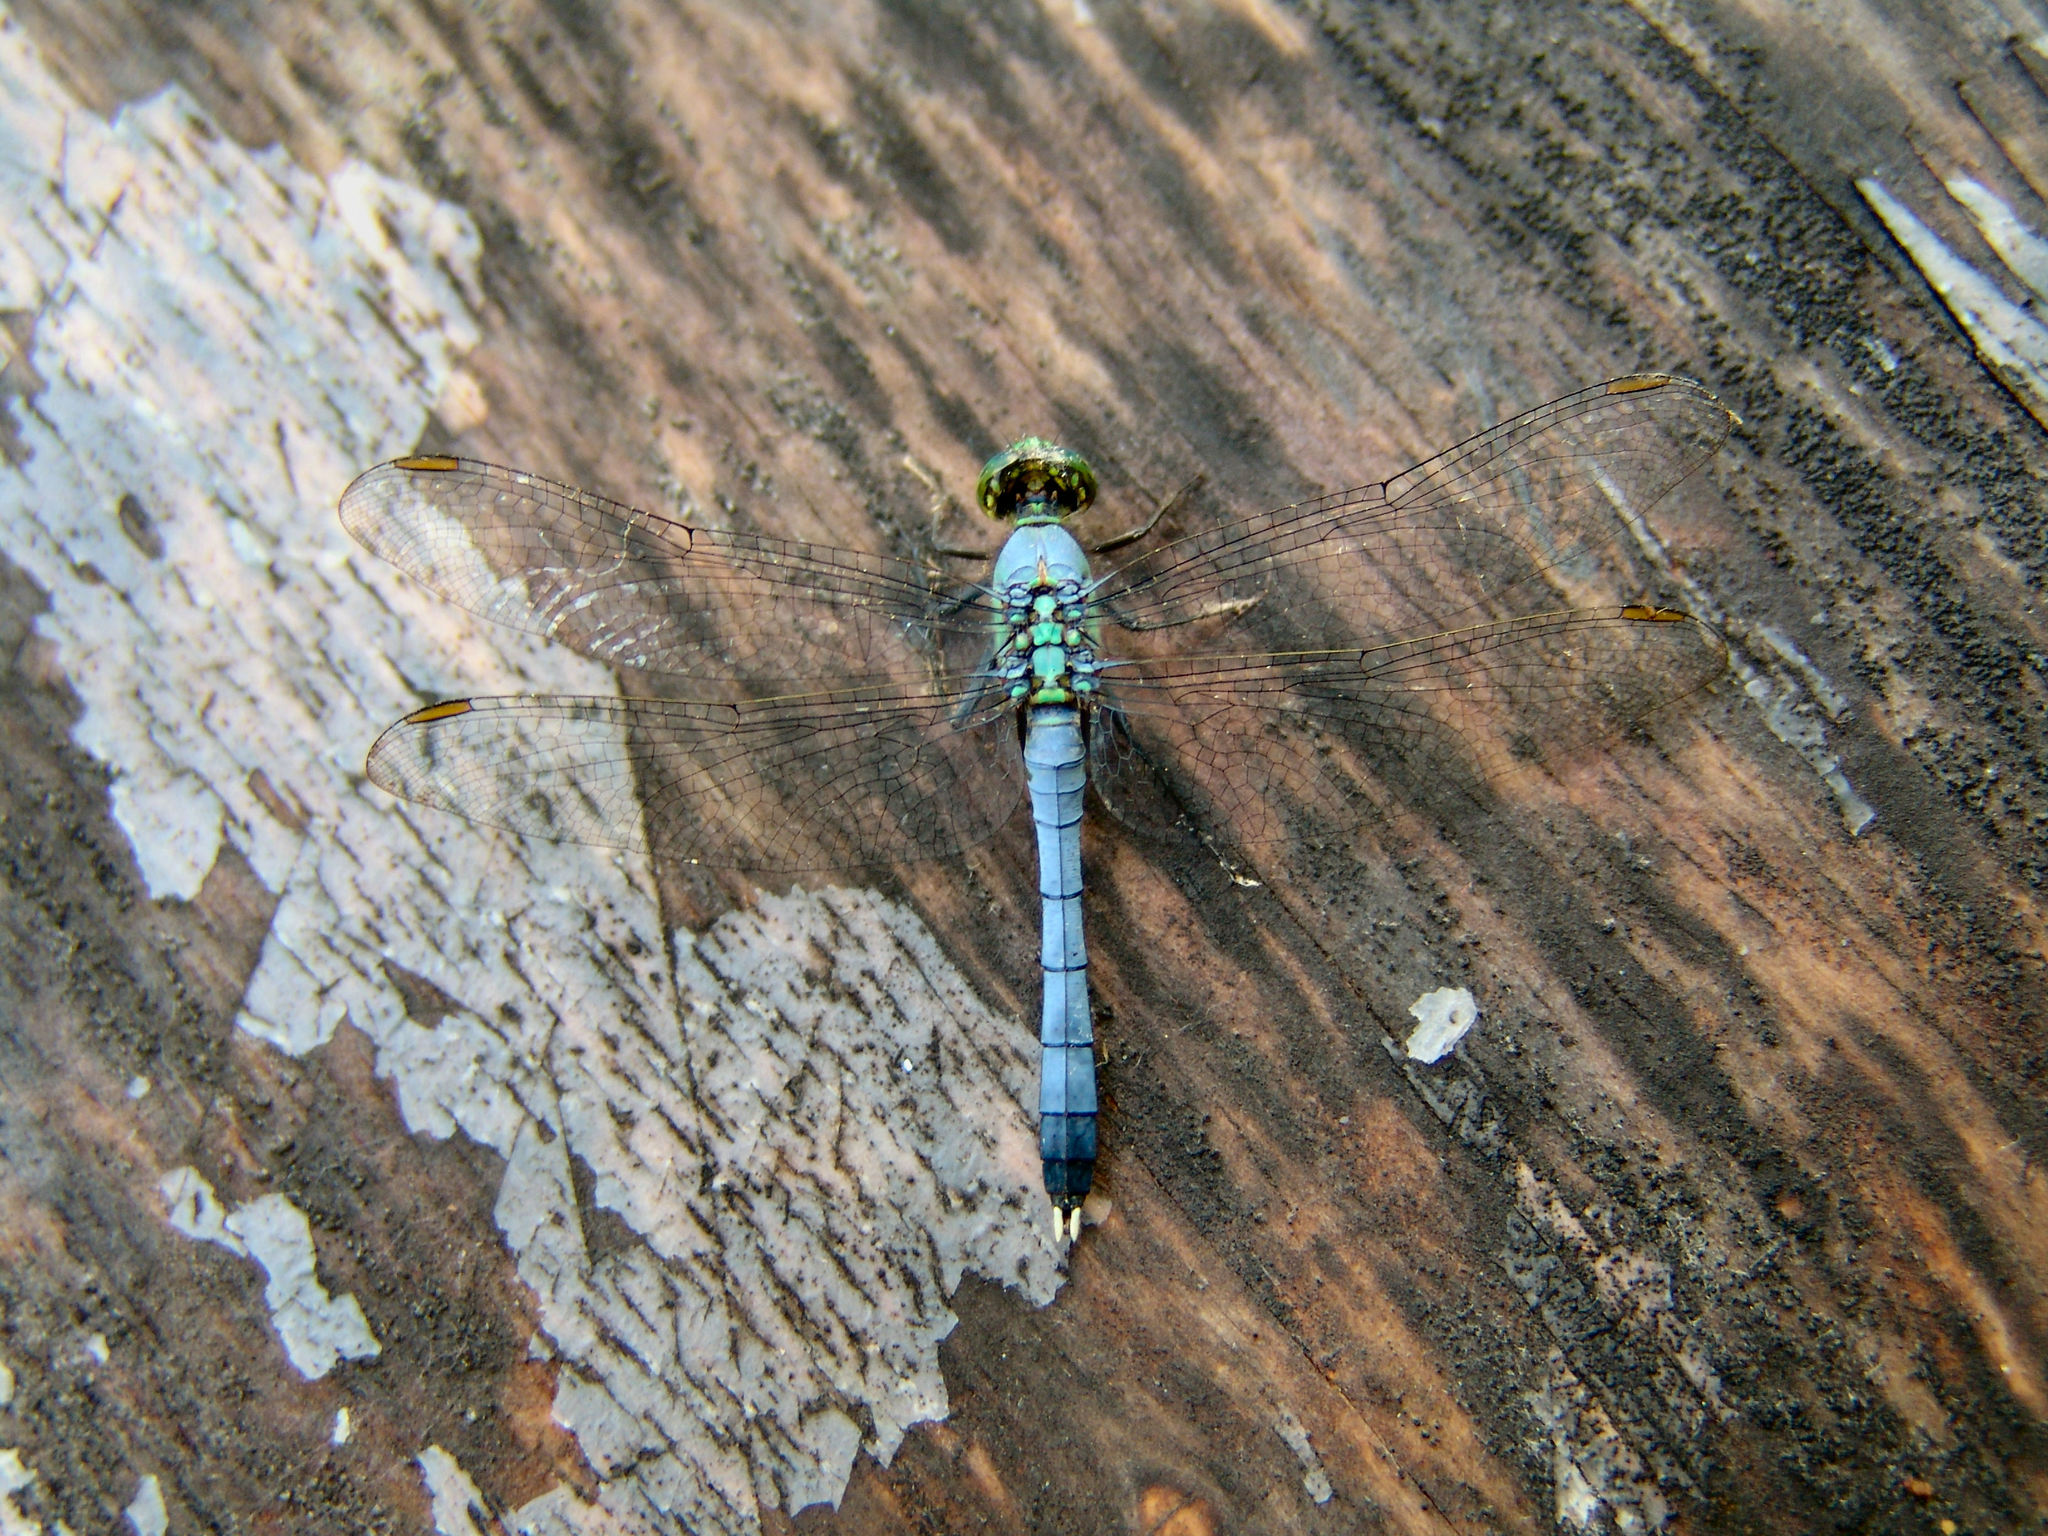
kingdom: Animalia
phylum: Arthropoda
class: Insecta
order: Odonata
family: Libellulidae
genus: Erythemis
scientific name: Erythemis simplicicollis
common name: Eastern pondhawk
